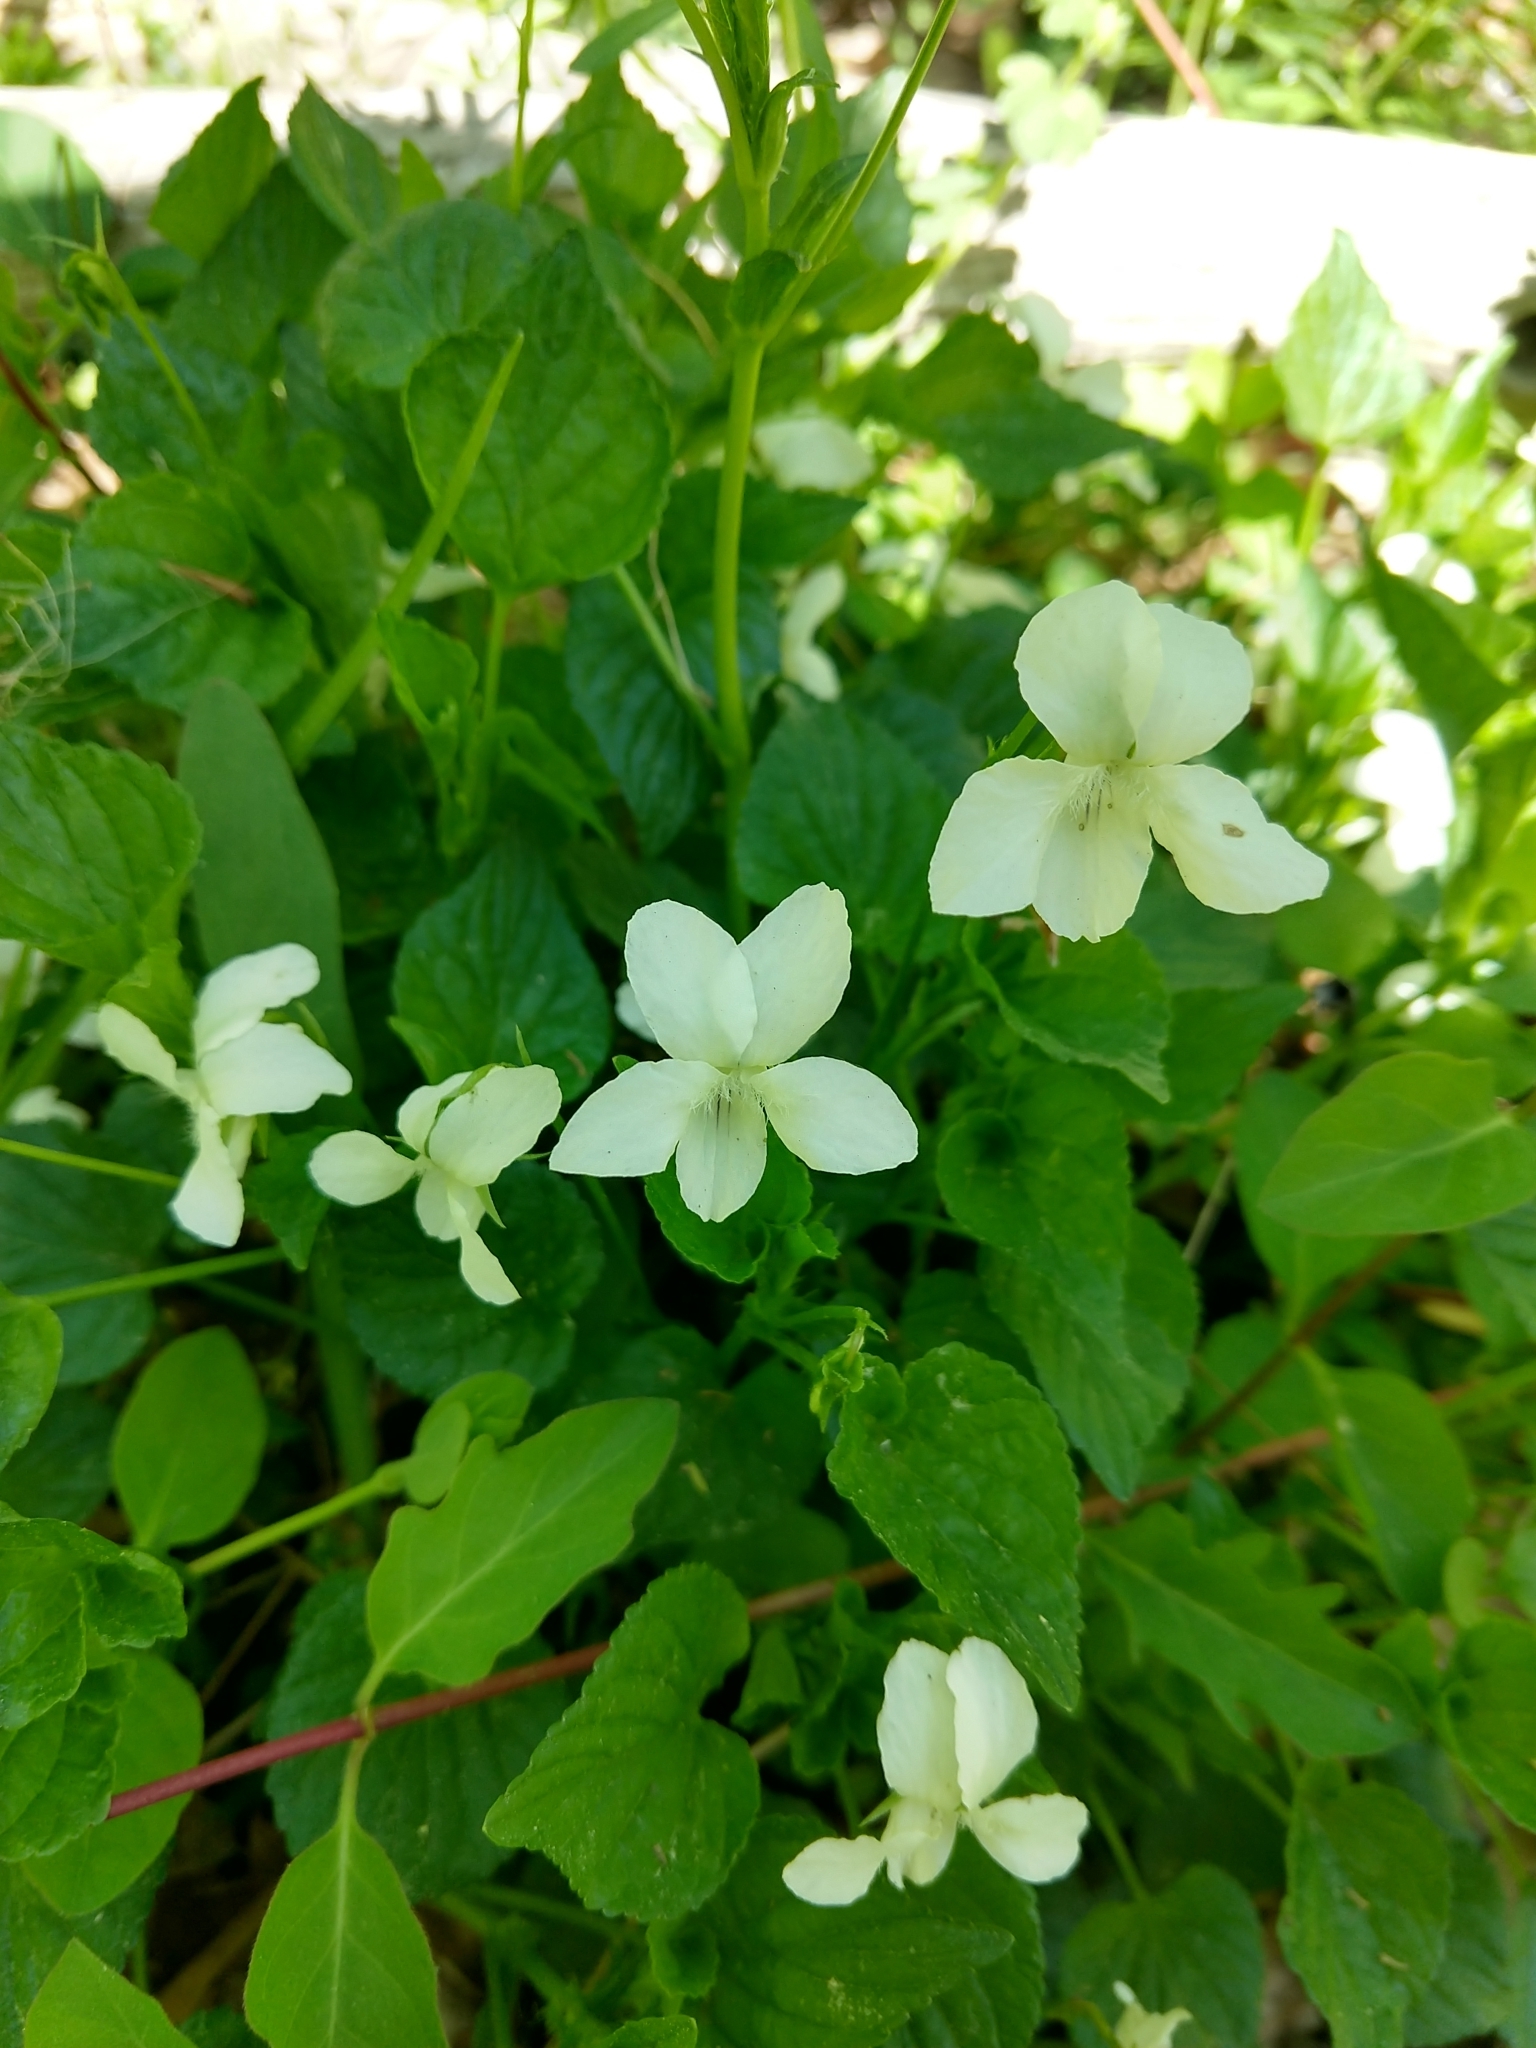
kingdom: Plantae
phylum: Tracheophyta
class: Magnoliopsida
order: Malpighiales
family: Violaceae
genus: Viola
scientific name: Viola striata
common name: Cream violet
